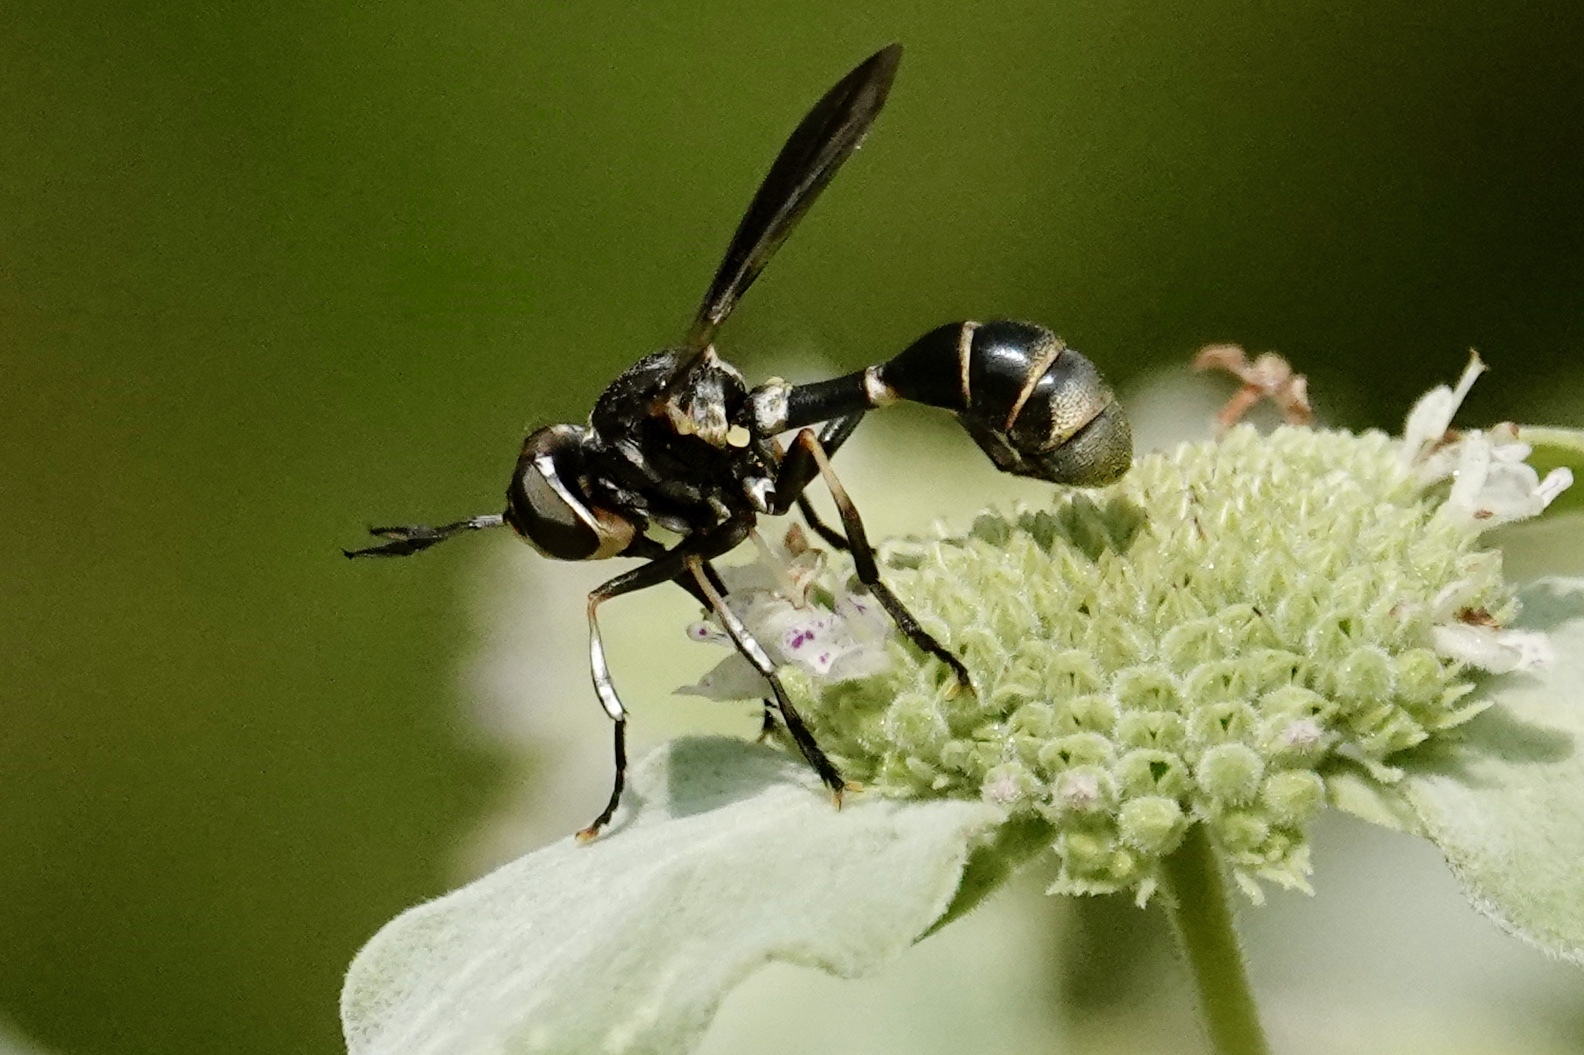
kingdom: Animalia
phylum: Arthropoda
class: Insecta
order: Diptera
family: Conopidae
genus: Physoconops
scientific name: Physoconops brachyrhynchus
